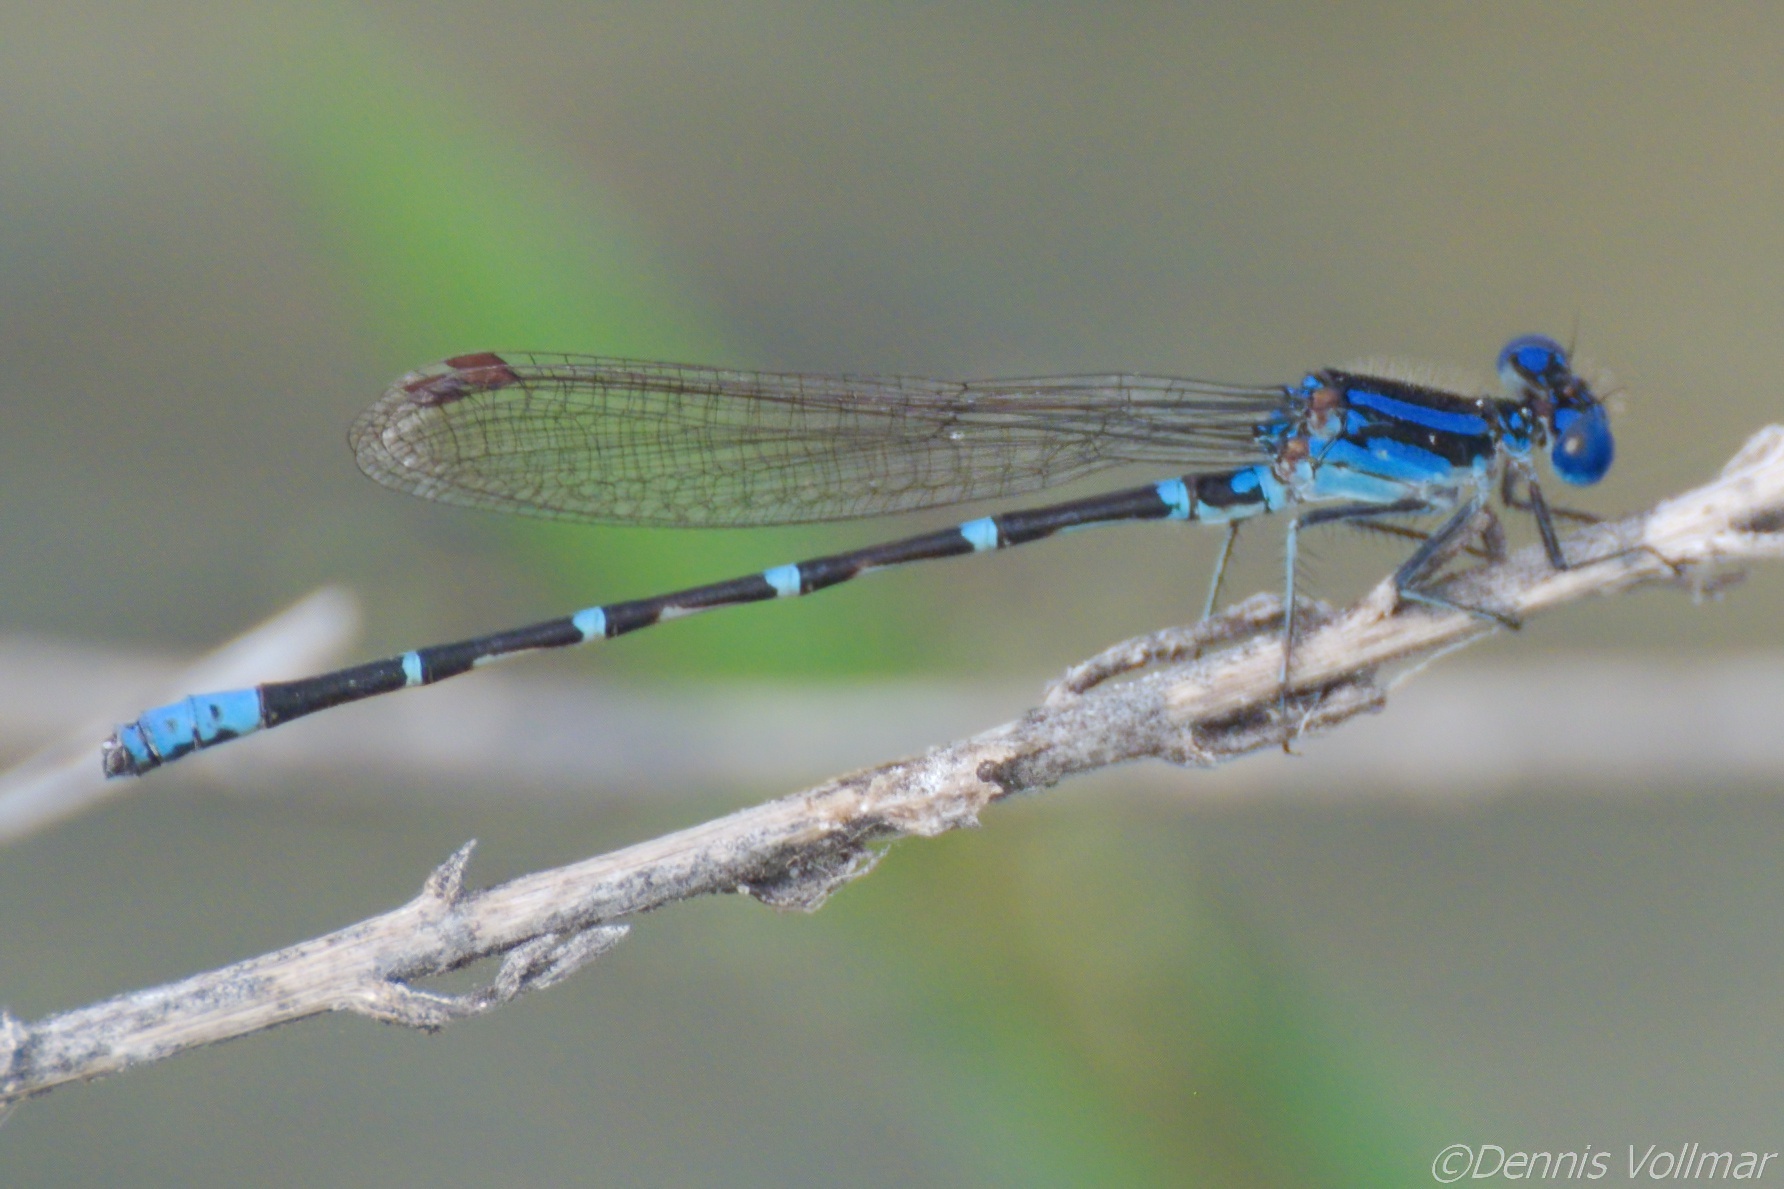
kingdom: Animalia
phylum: Arthropoda
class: Insecta
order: Odonata
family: Coenagrionidae
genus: Argia
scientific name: Argia sedula
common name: Blue-ringed dancer
